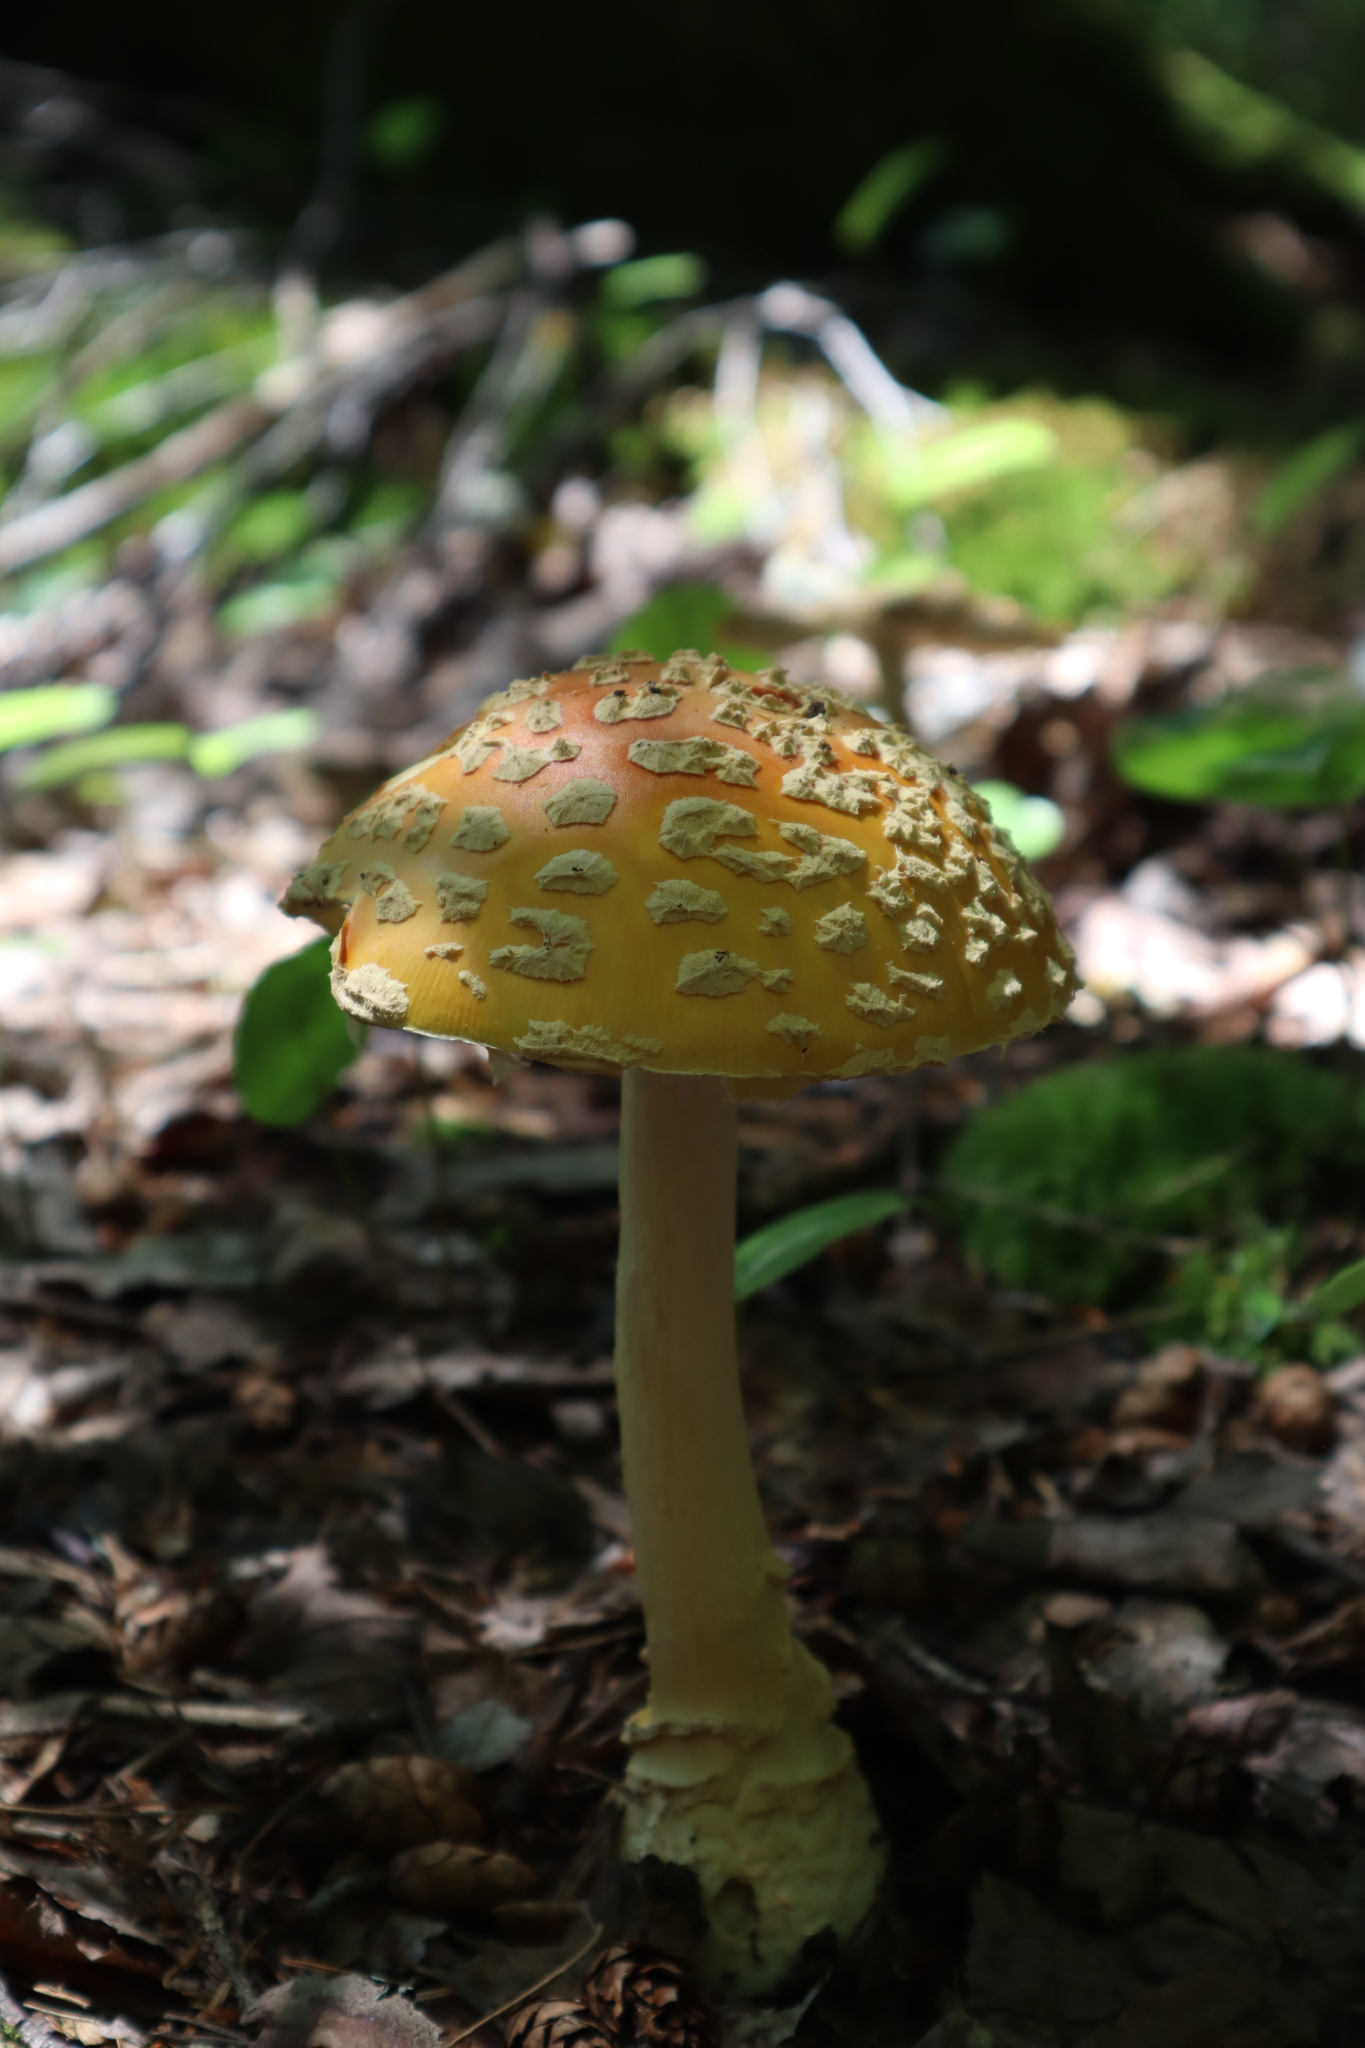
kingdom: Fungi
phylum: Basidiomycota
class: Agaricomycetes
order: Agaricales
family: Amanitaceae
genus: Amanita
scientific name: Amanita muscaria
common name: Fly agaric
